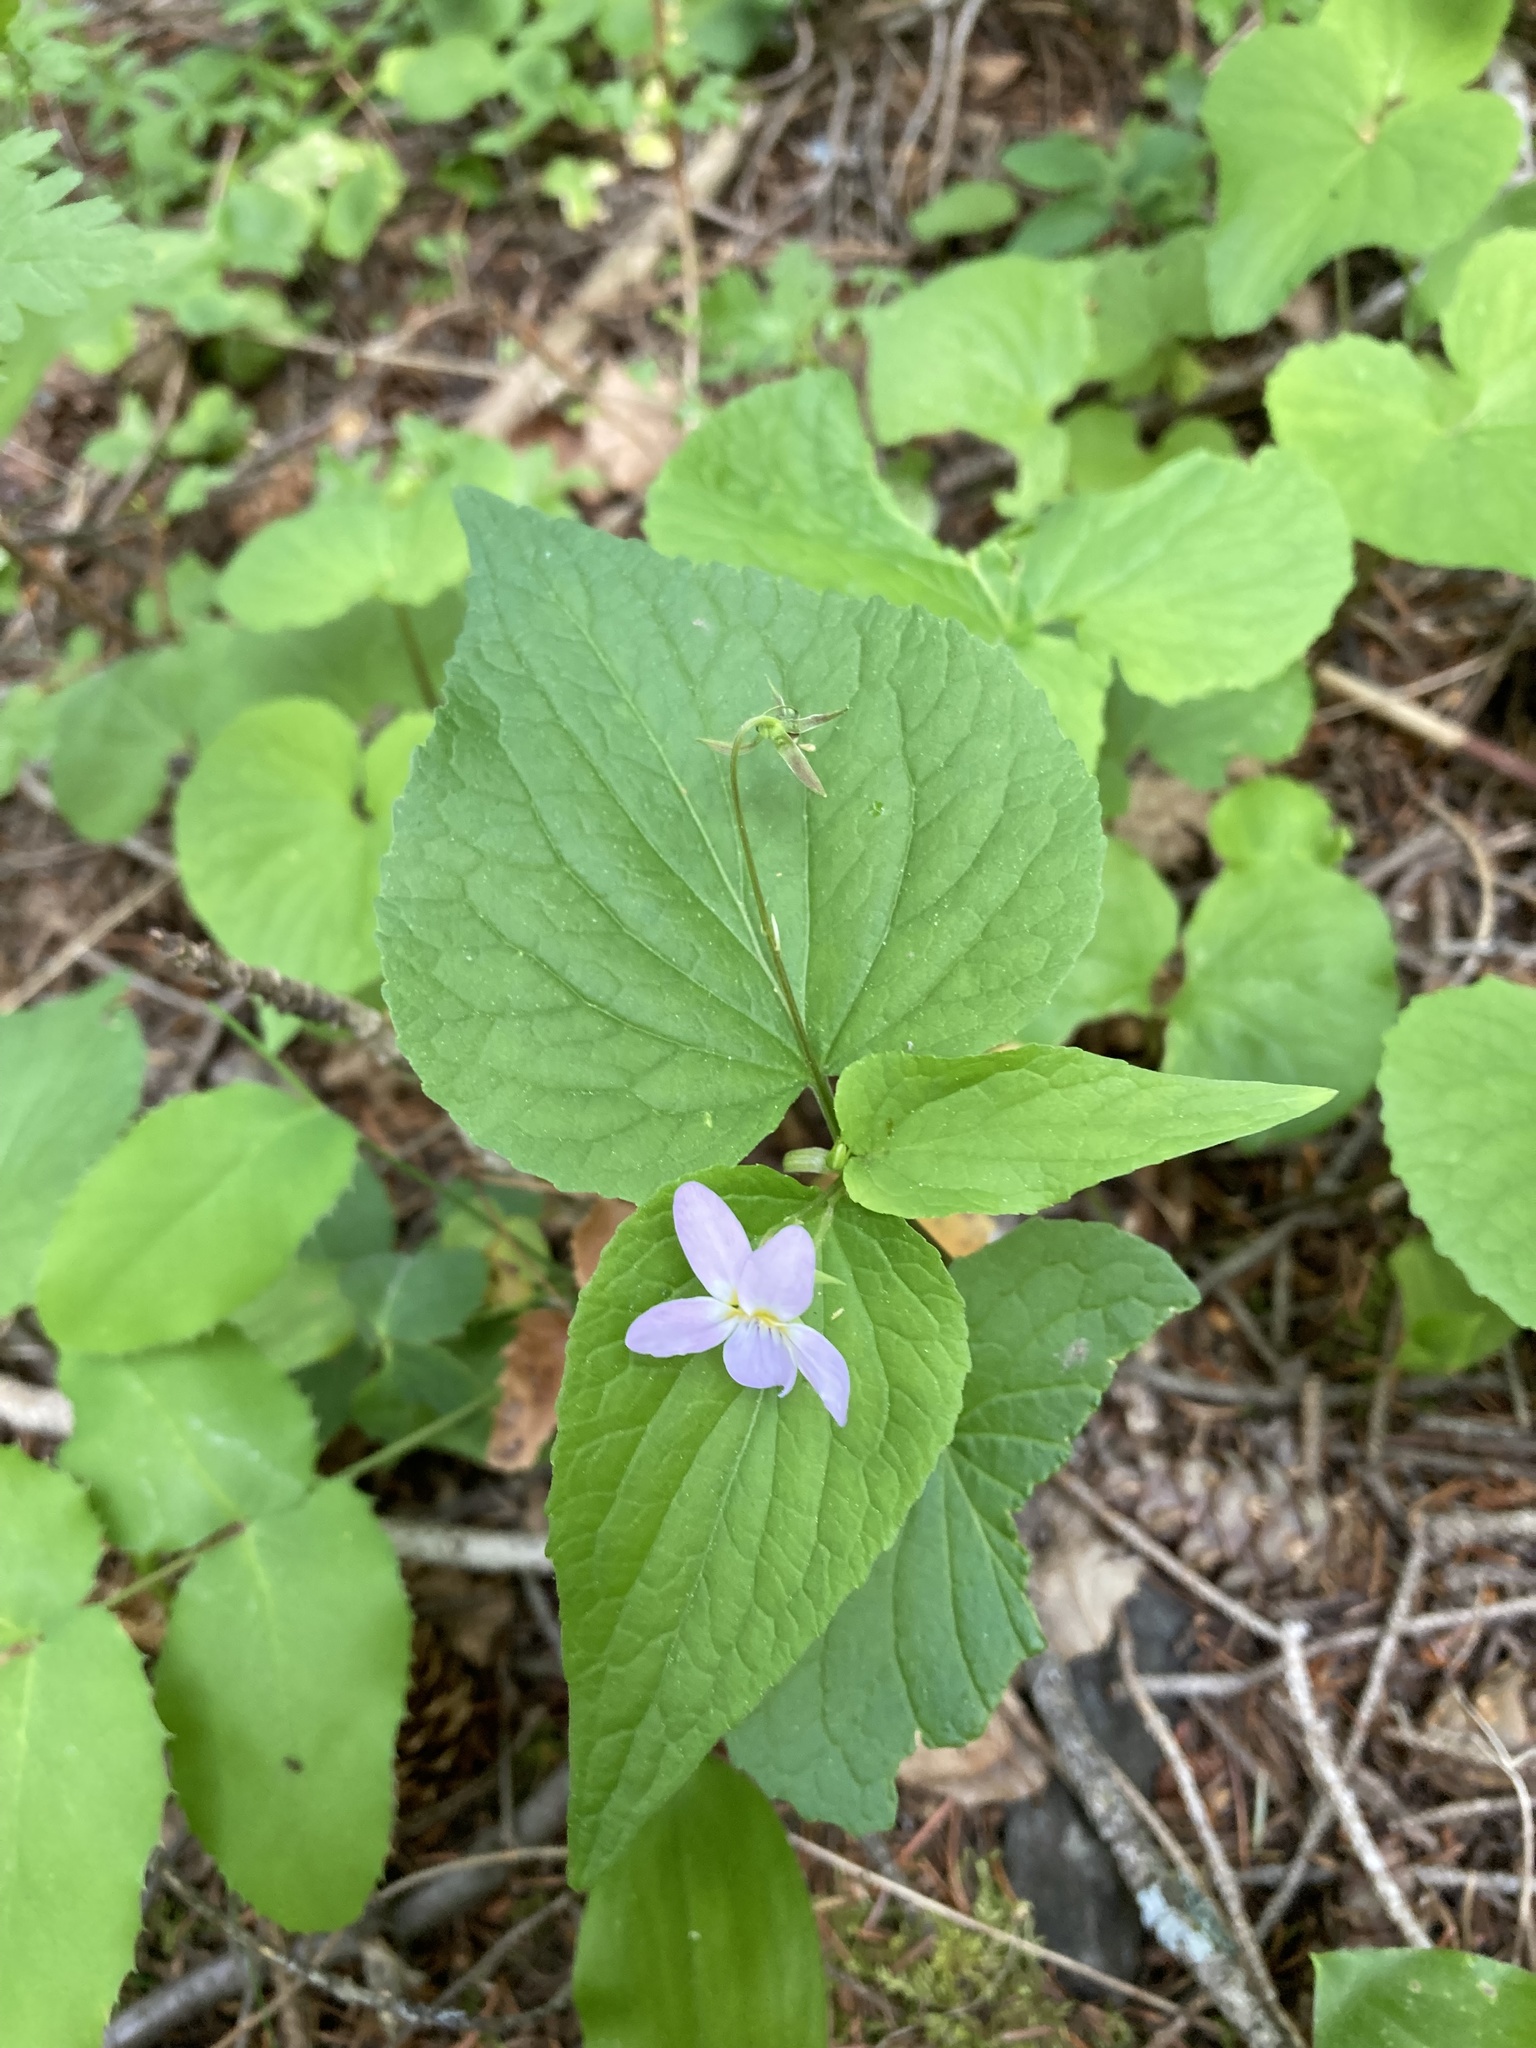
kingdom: Plantae
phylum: Tracheophyta
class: Magnoliopsida
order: Malpighiales
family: Violaceae
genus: Viola
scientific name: Viola canadensis
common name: Canada violet
